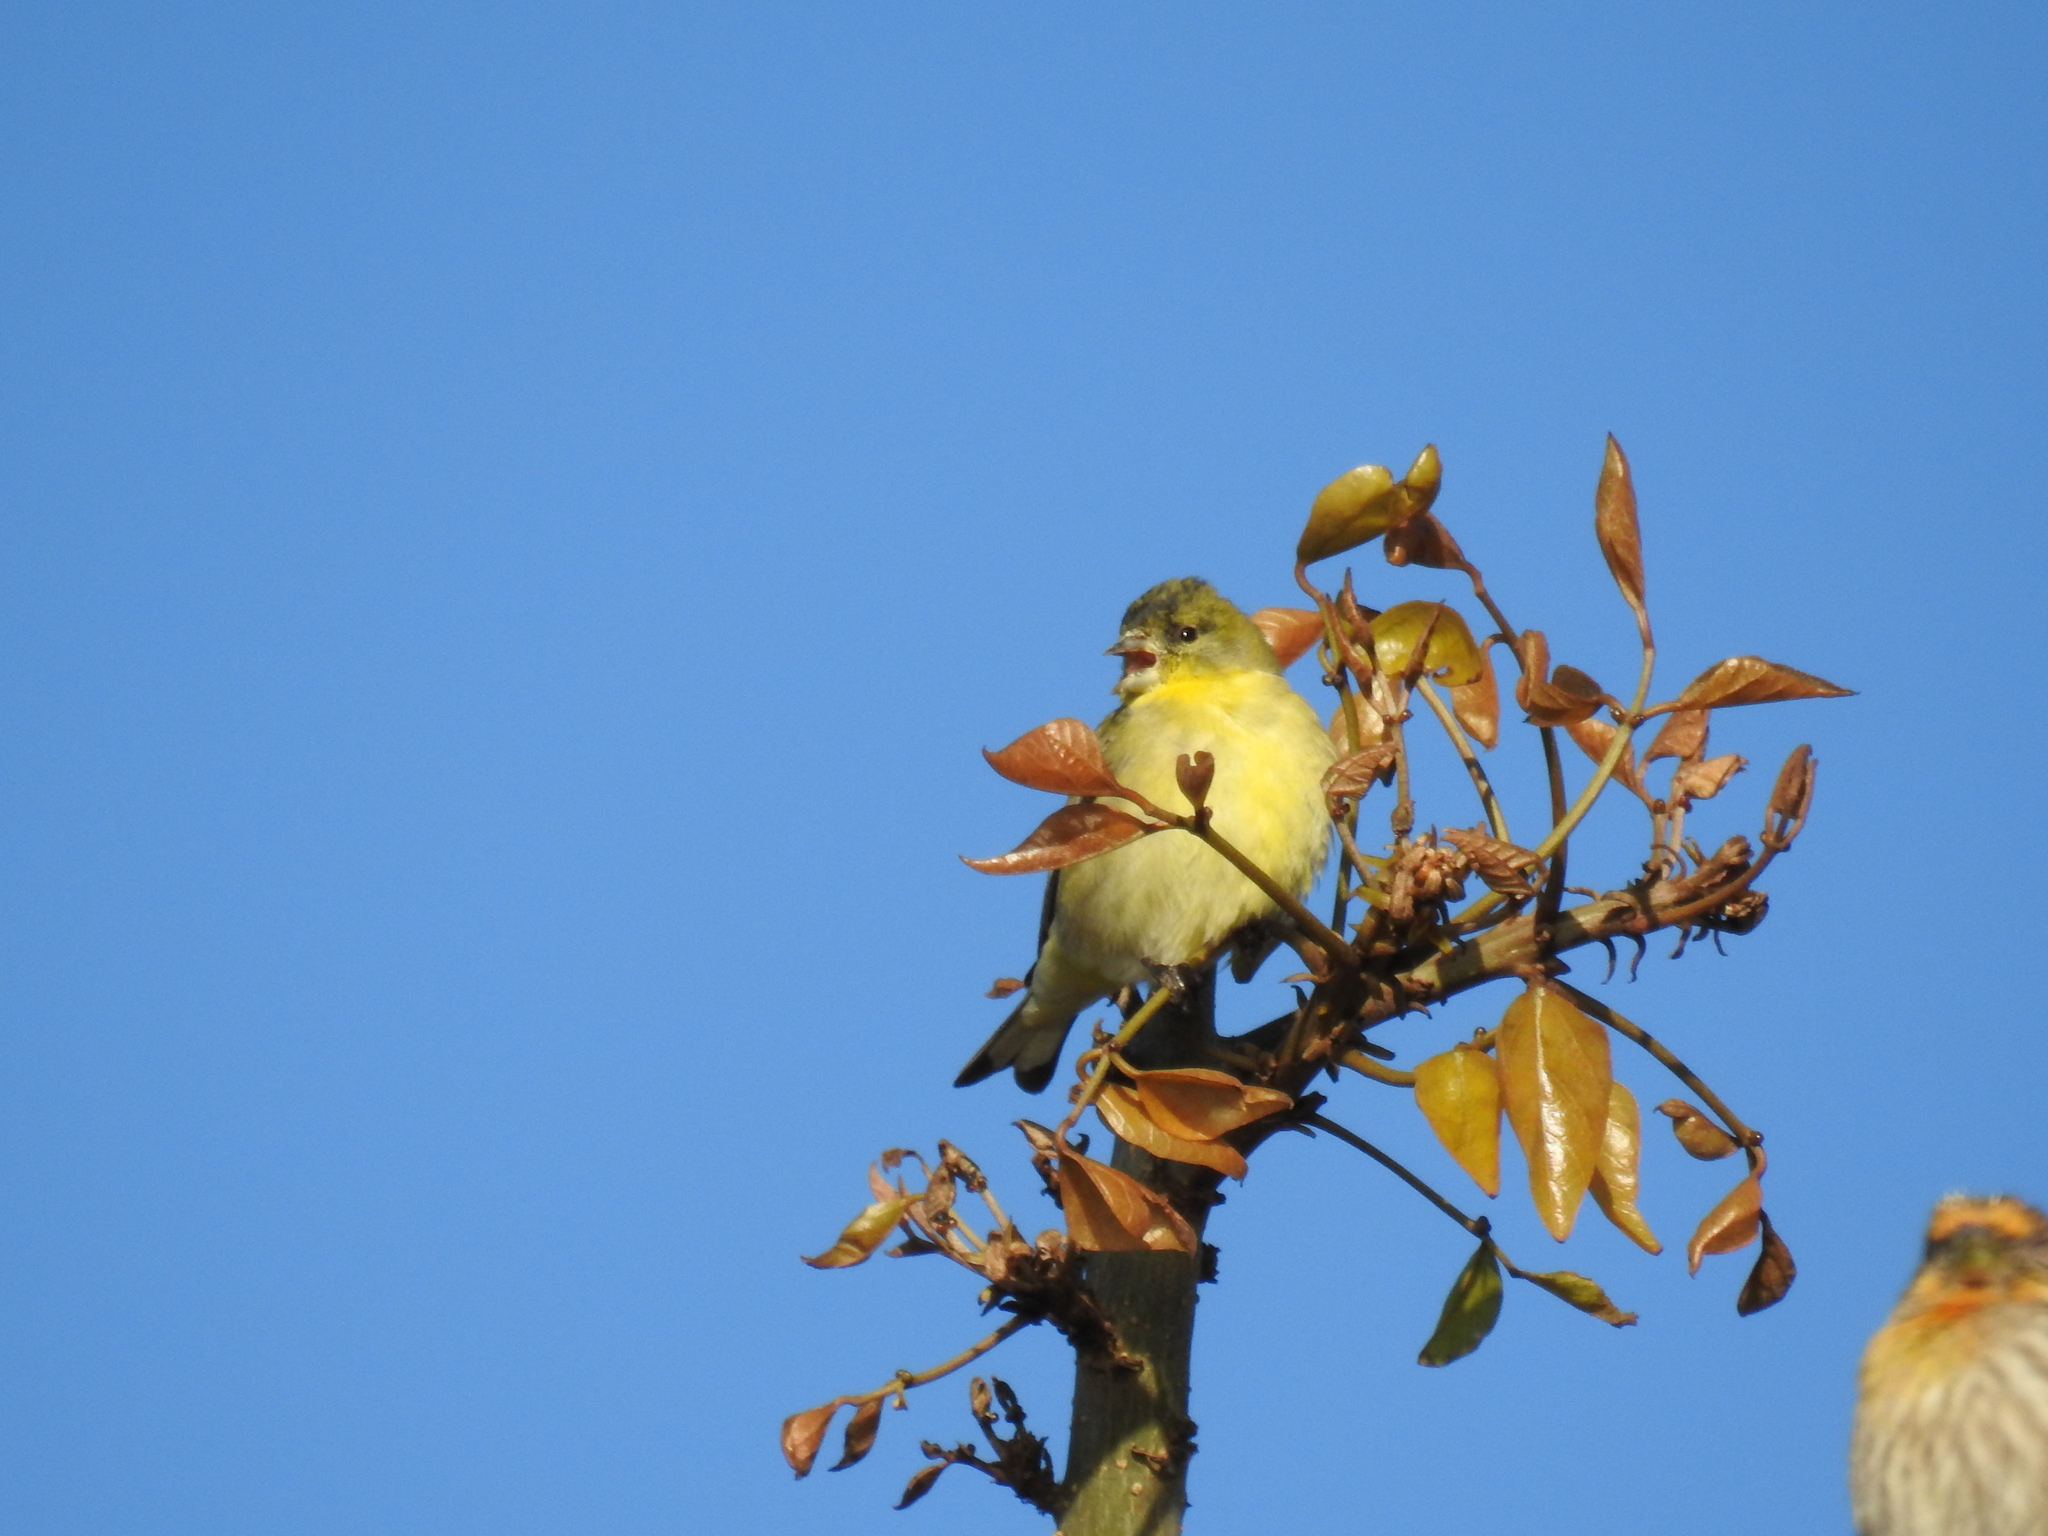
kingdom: Animalia
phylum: Chordata
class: Aves
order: Passeriformes
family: Fringillidae
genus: Spinus
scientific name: Spinus psaltria
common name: Lesser goldfinch
